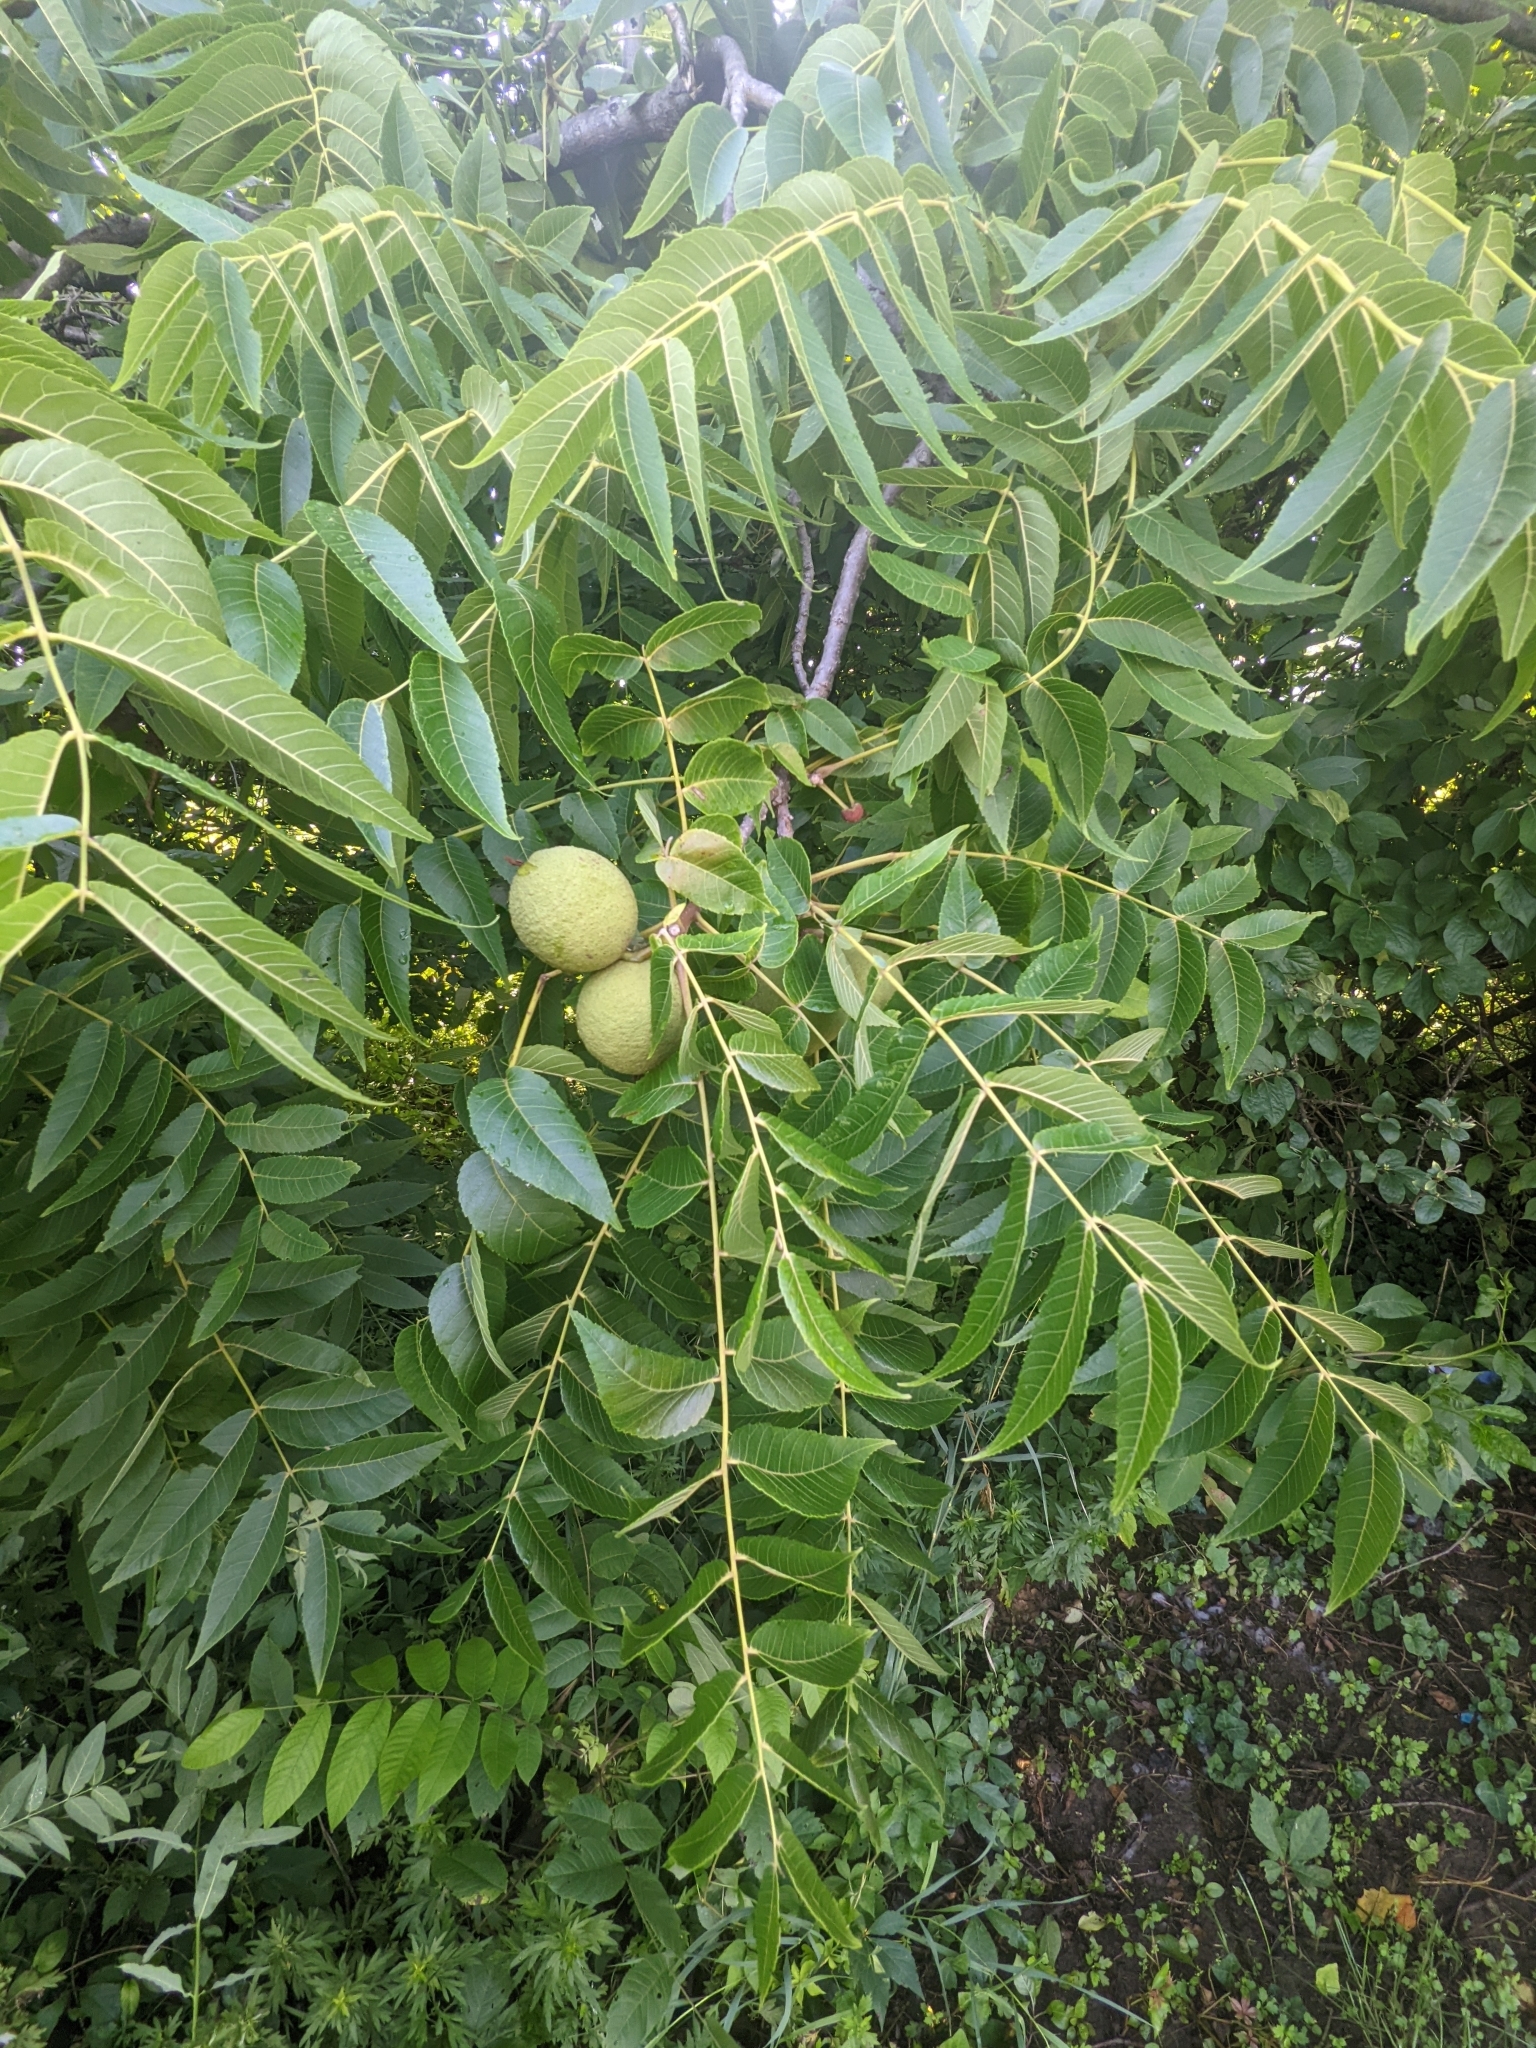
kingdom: Plantae
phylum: Tracheophyta
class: Magnoliopsida
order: Fagales
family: Juglandaceae
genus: Juglans
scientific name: Juglans nigra
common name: Black walnut
